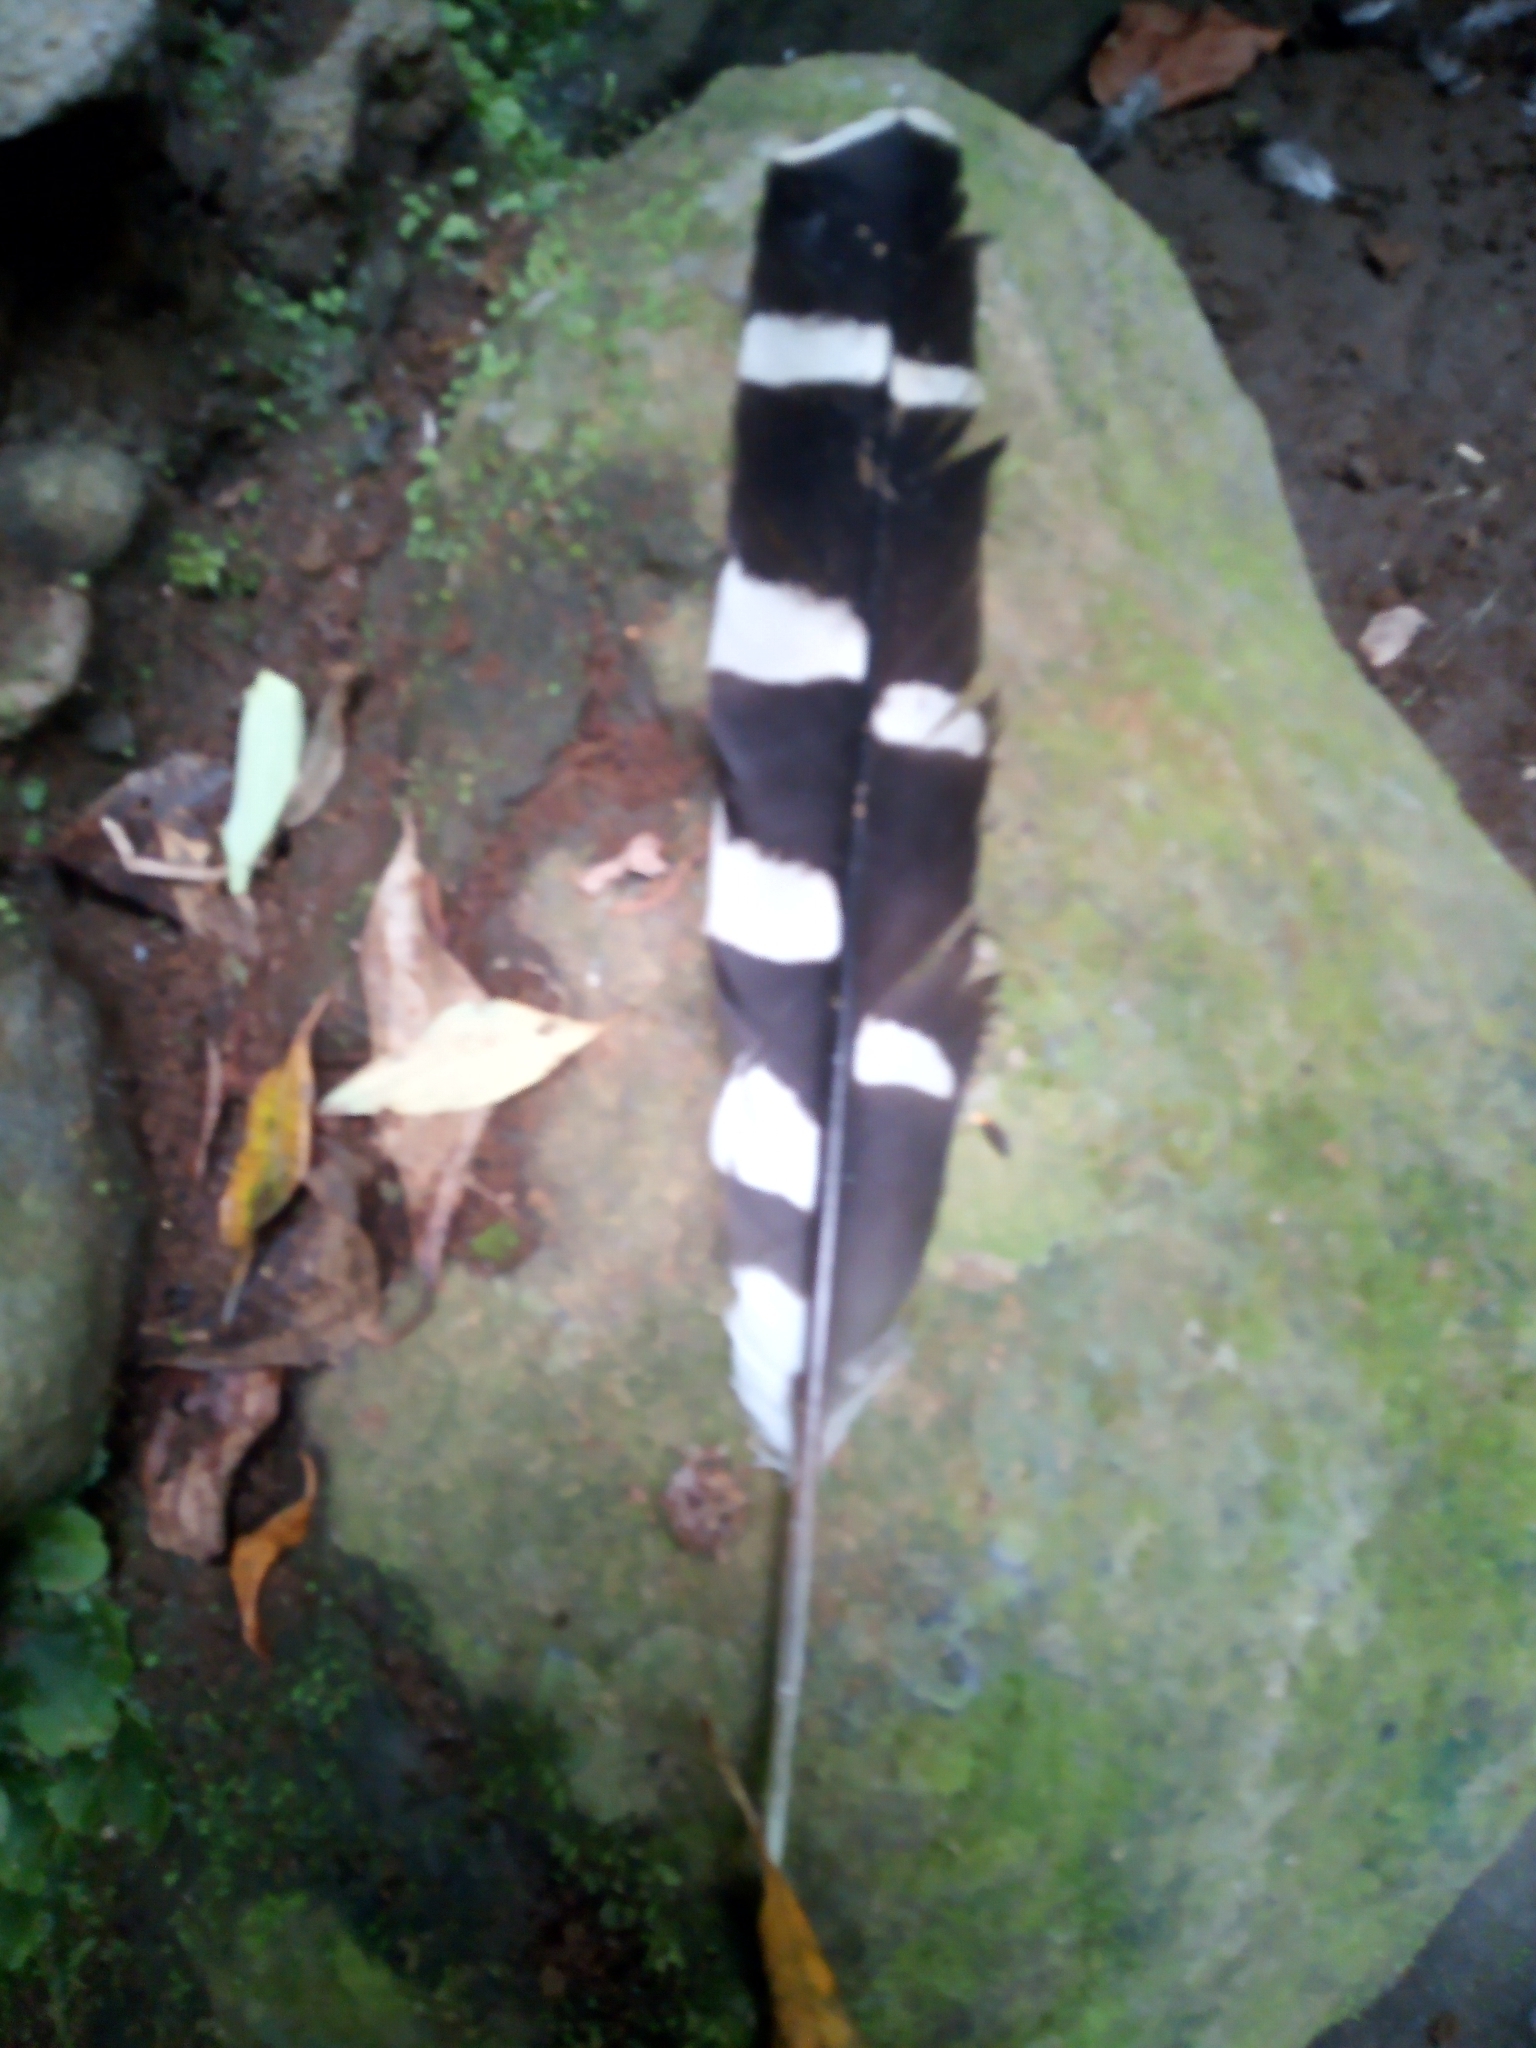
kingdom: Animalia
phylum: Chordata
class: Aves
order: Falconiformes
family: Falconidae
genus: Herpetotheres
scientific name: Herpetotheres cachinnans
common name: Laughing falcon
